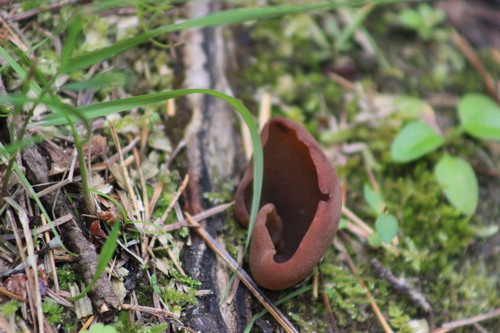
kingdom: Fungi
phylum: Ascomycota
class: Pezizomycetes
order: Pezizales
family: Pezizaceae
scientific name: Pezizaceae
